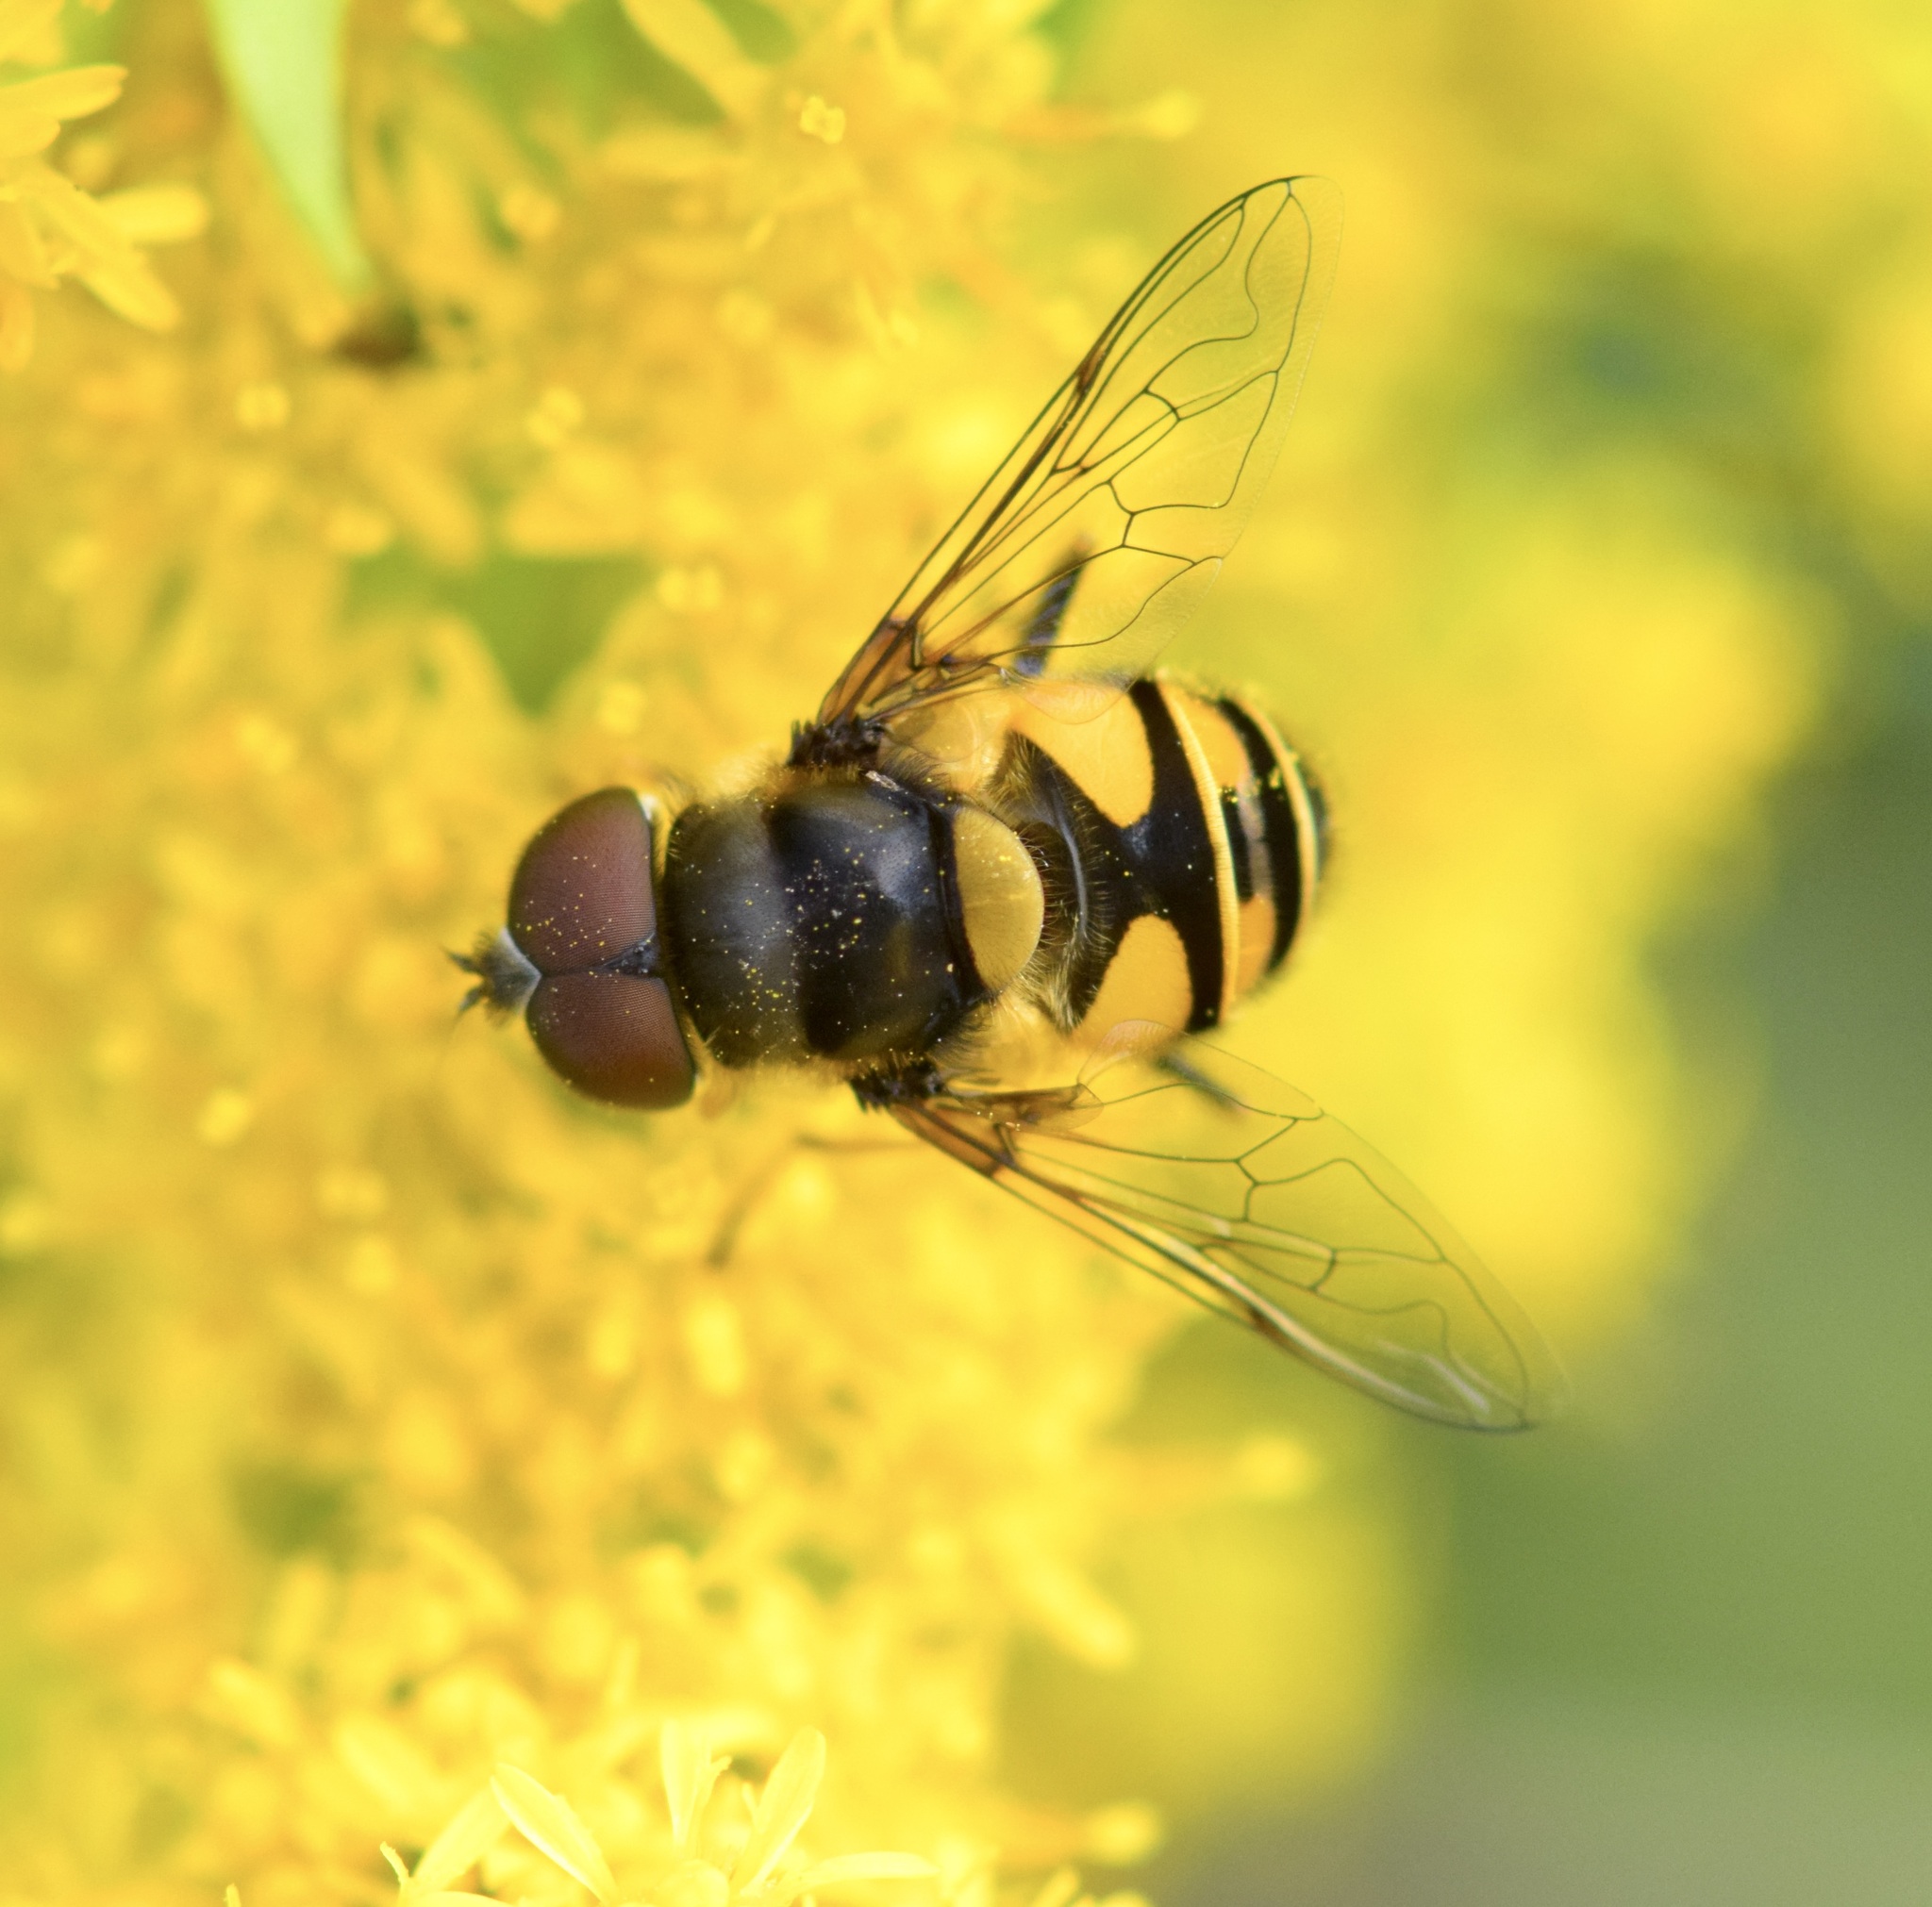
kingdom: Animalia
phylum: Arthropoda
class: Insecta
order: Diptera
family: Syrphidae
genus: Eristalis
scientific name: Eristalis transversa
